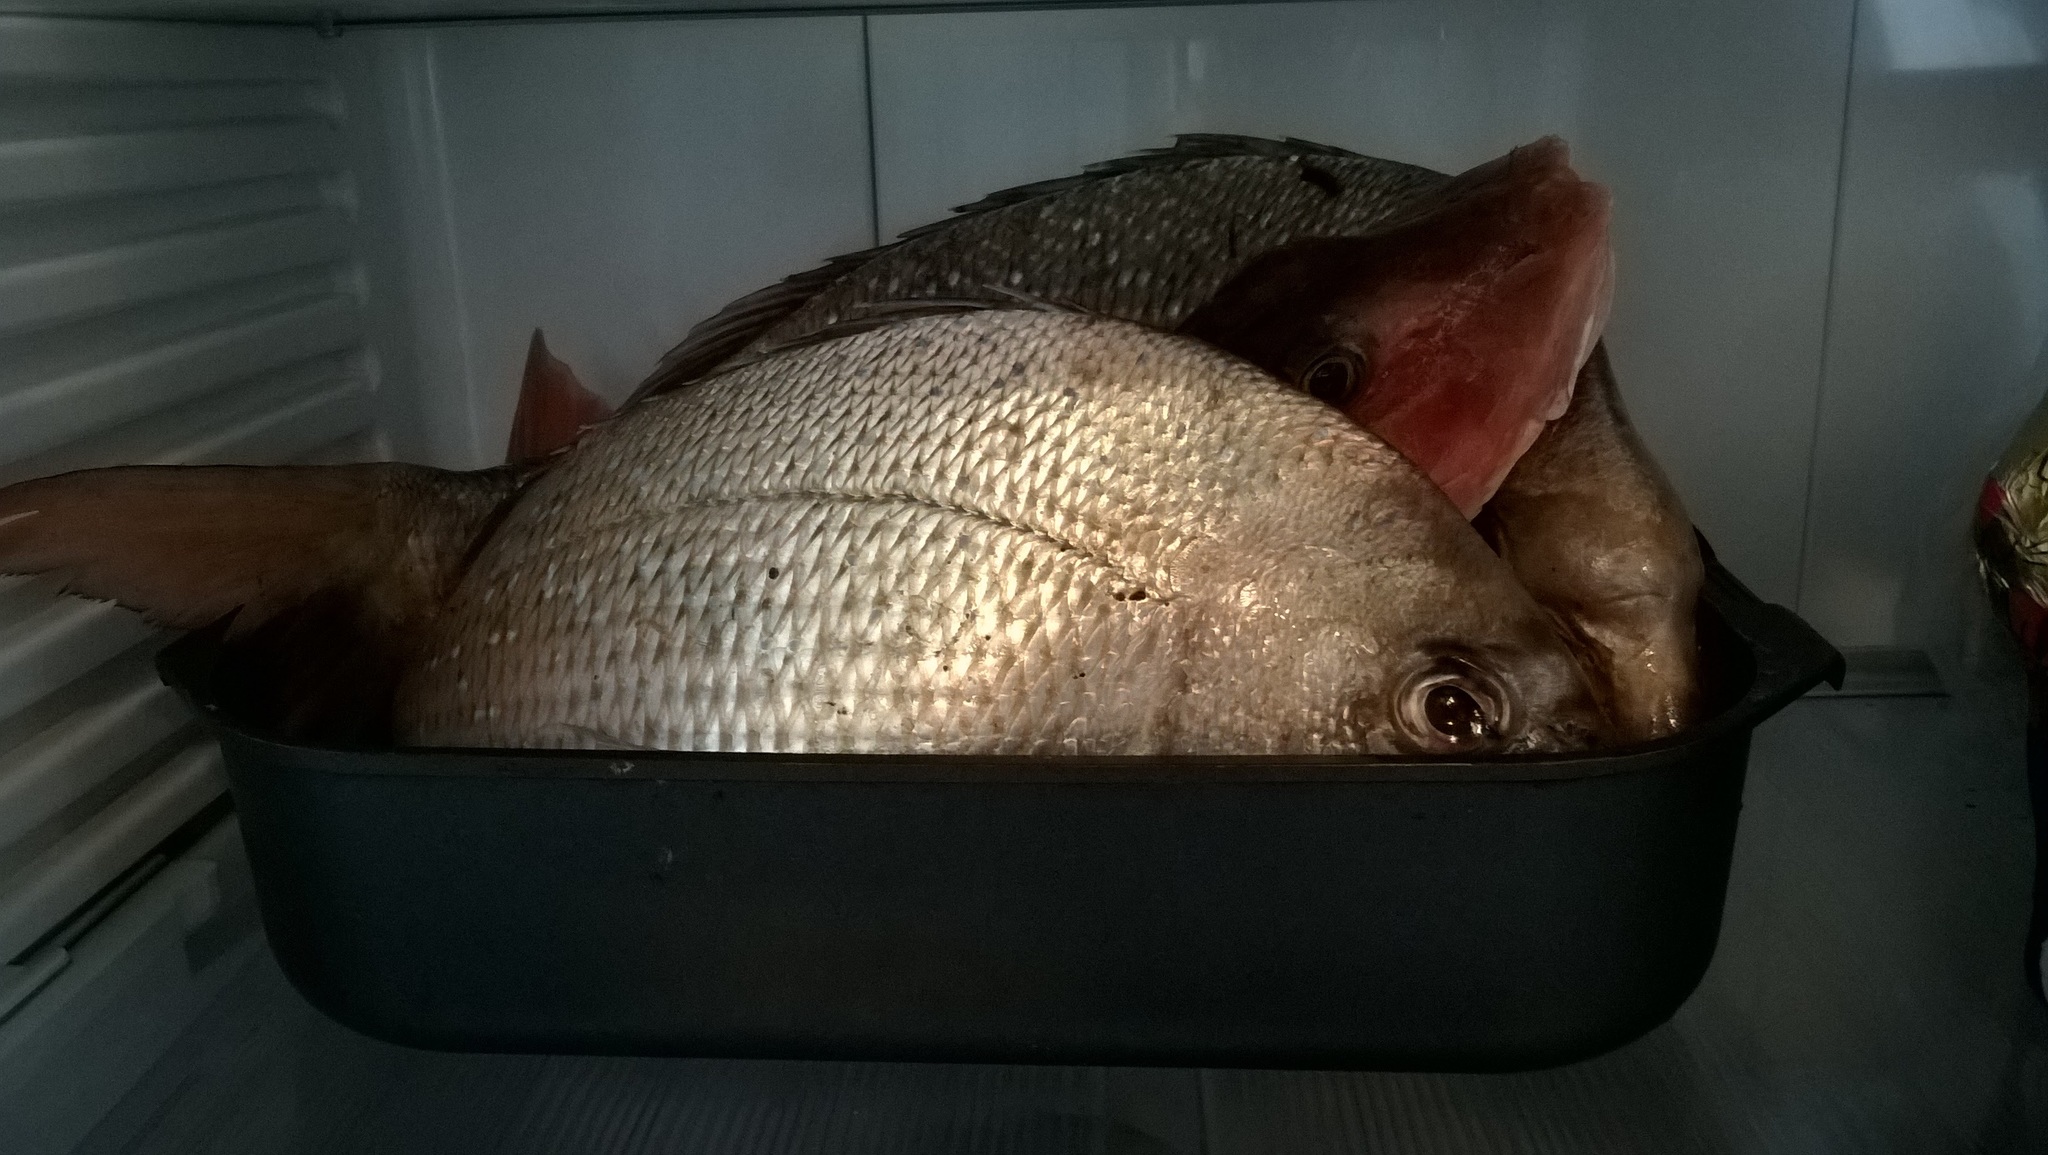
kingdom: Animalia
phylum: Chordata
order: Scorpaeniformes
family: Triglidae
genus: Chelidonichthys
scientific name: Chelidonichthys kumu
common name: Bluefin gurnard
